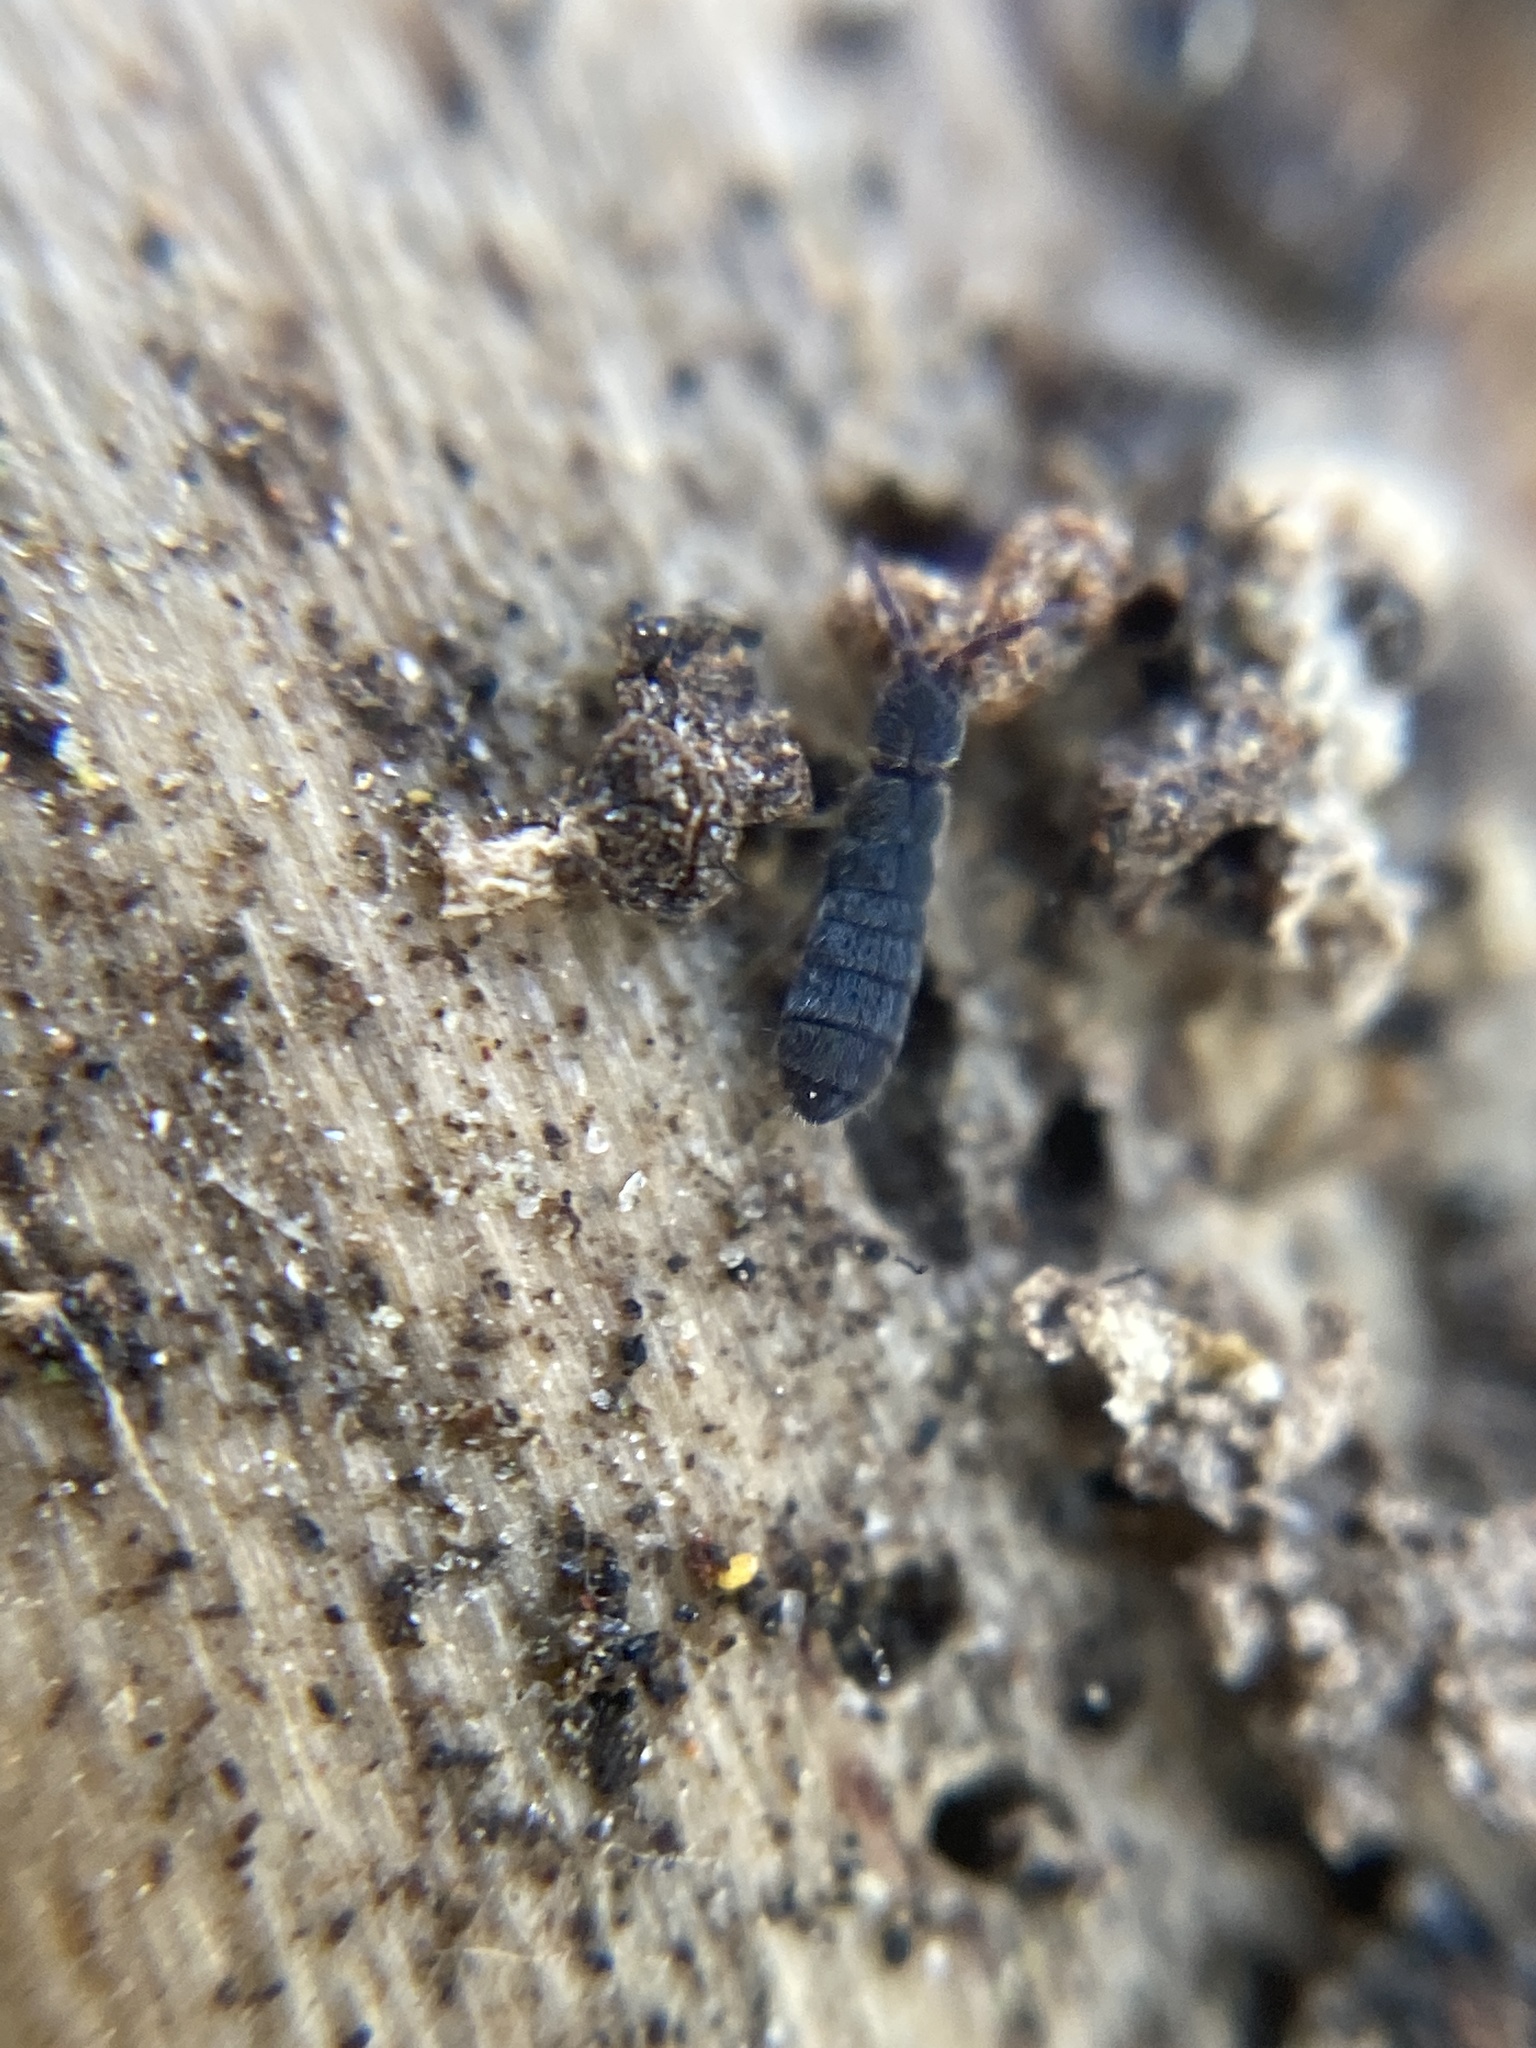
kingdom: Animalia
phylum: Arthropoda
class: Collembola
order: Entomobryomorpha
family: Isotomidae
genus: Vertagopus
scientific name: Vertagopus asiaticus
